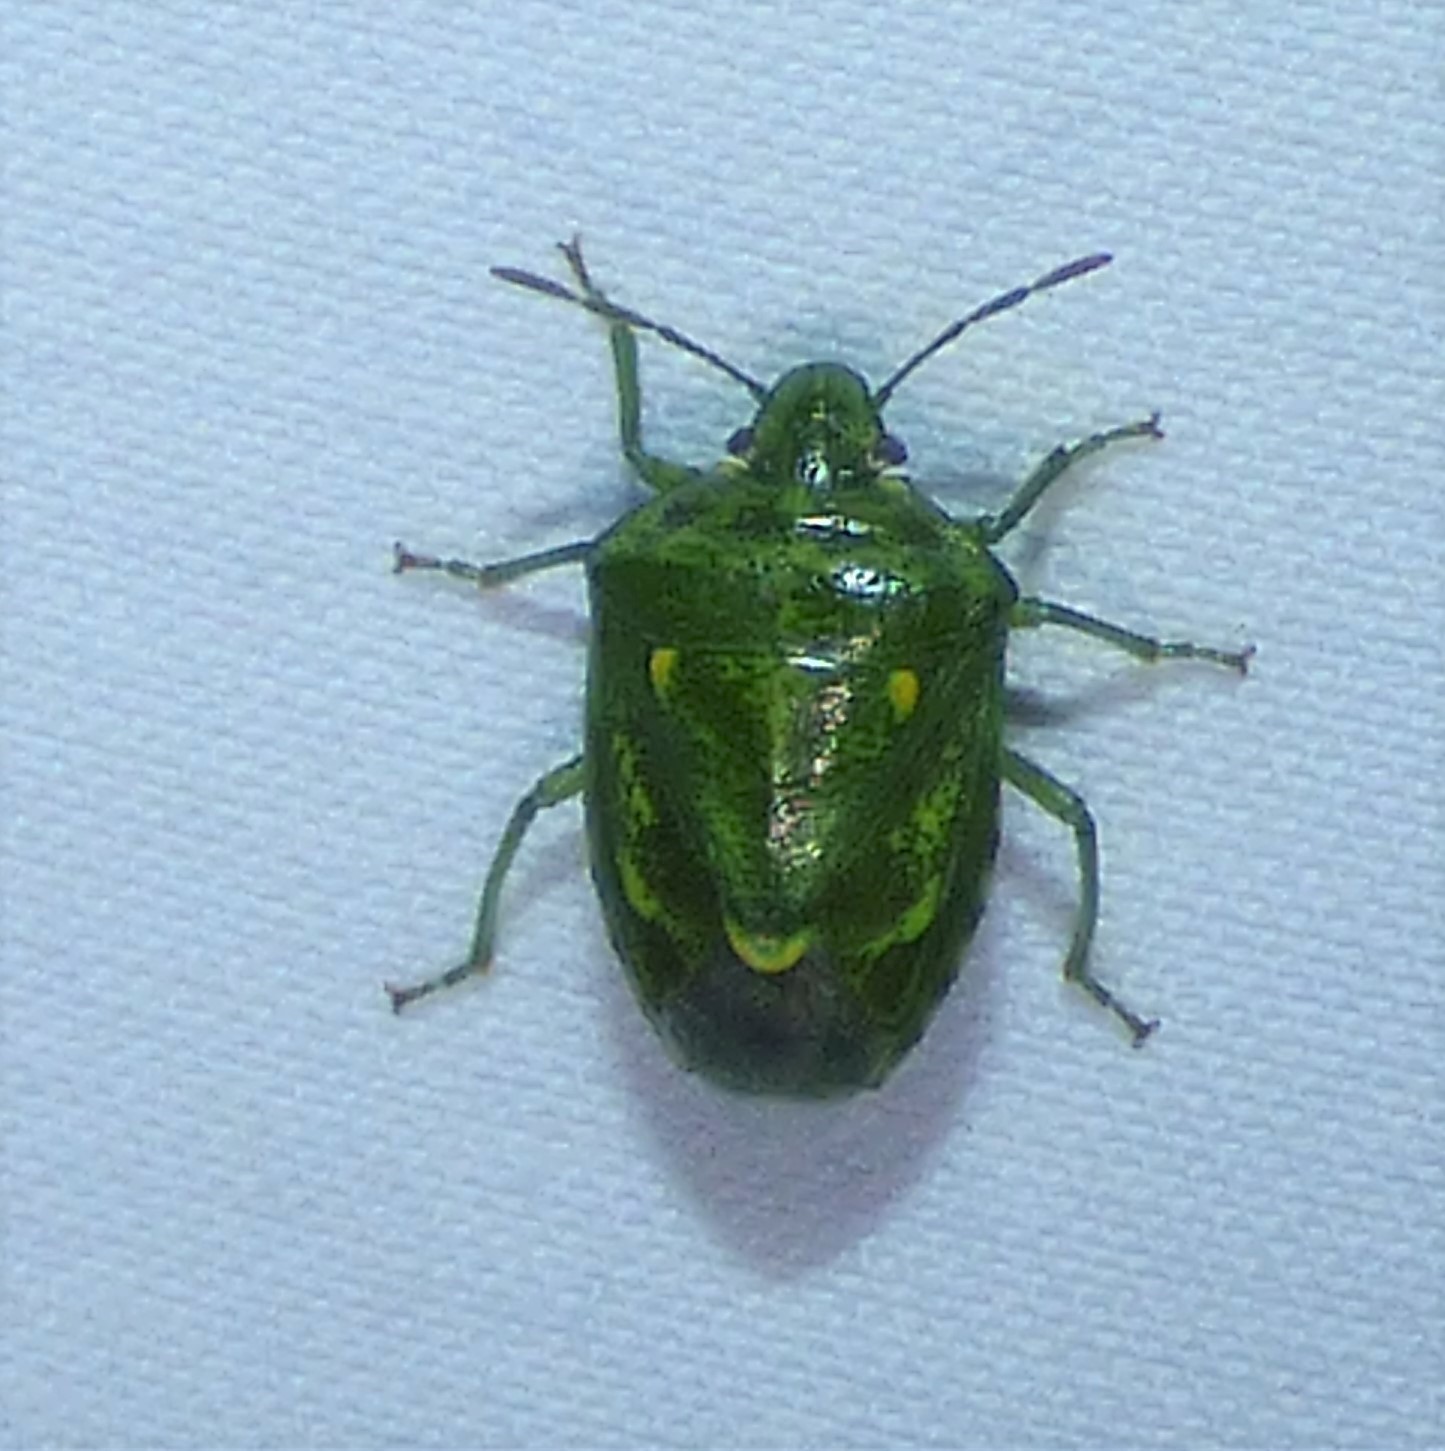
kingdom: Animalia
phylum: Arthropoda
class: Insecta
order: Hemiptera
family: Pentatomidae
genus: Banasa
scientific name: Banasa euchlora
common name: Cedar berry bug
